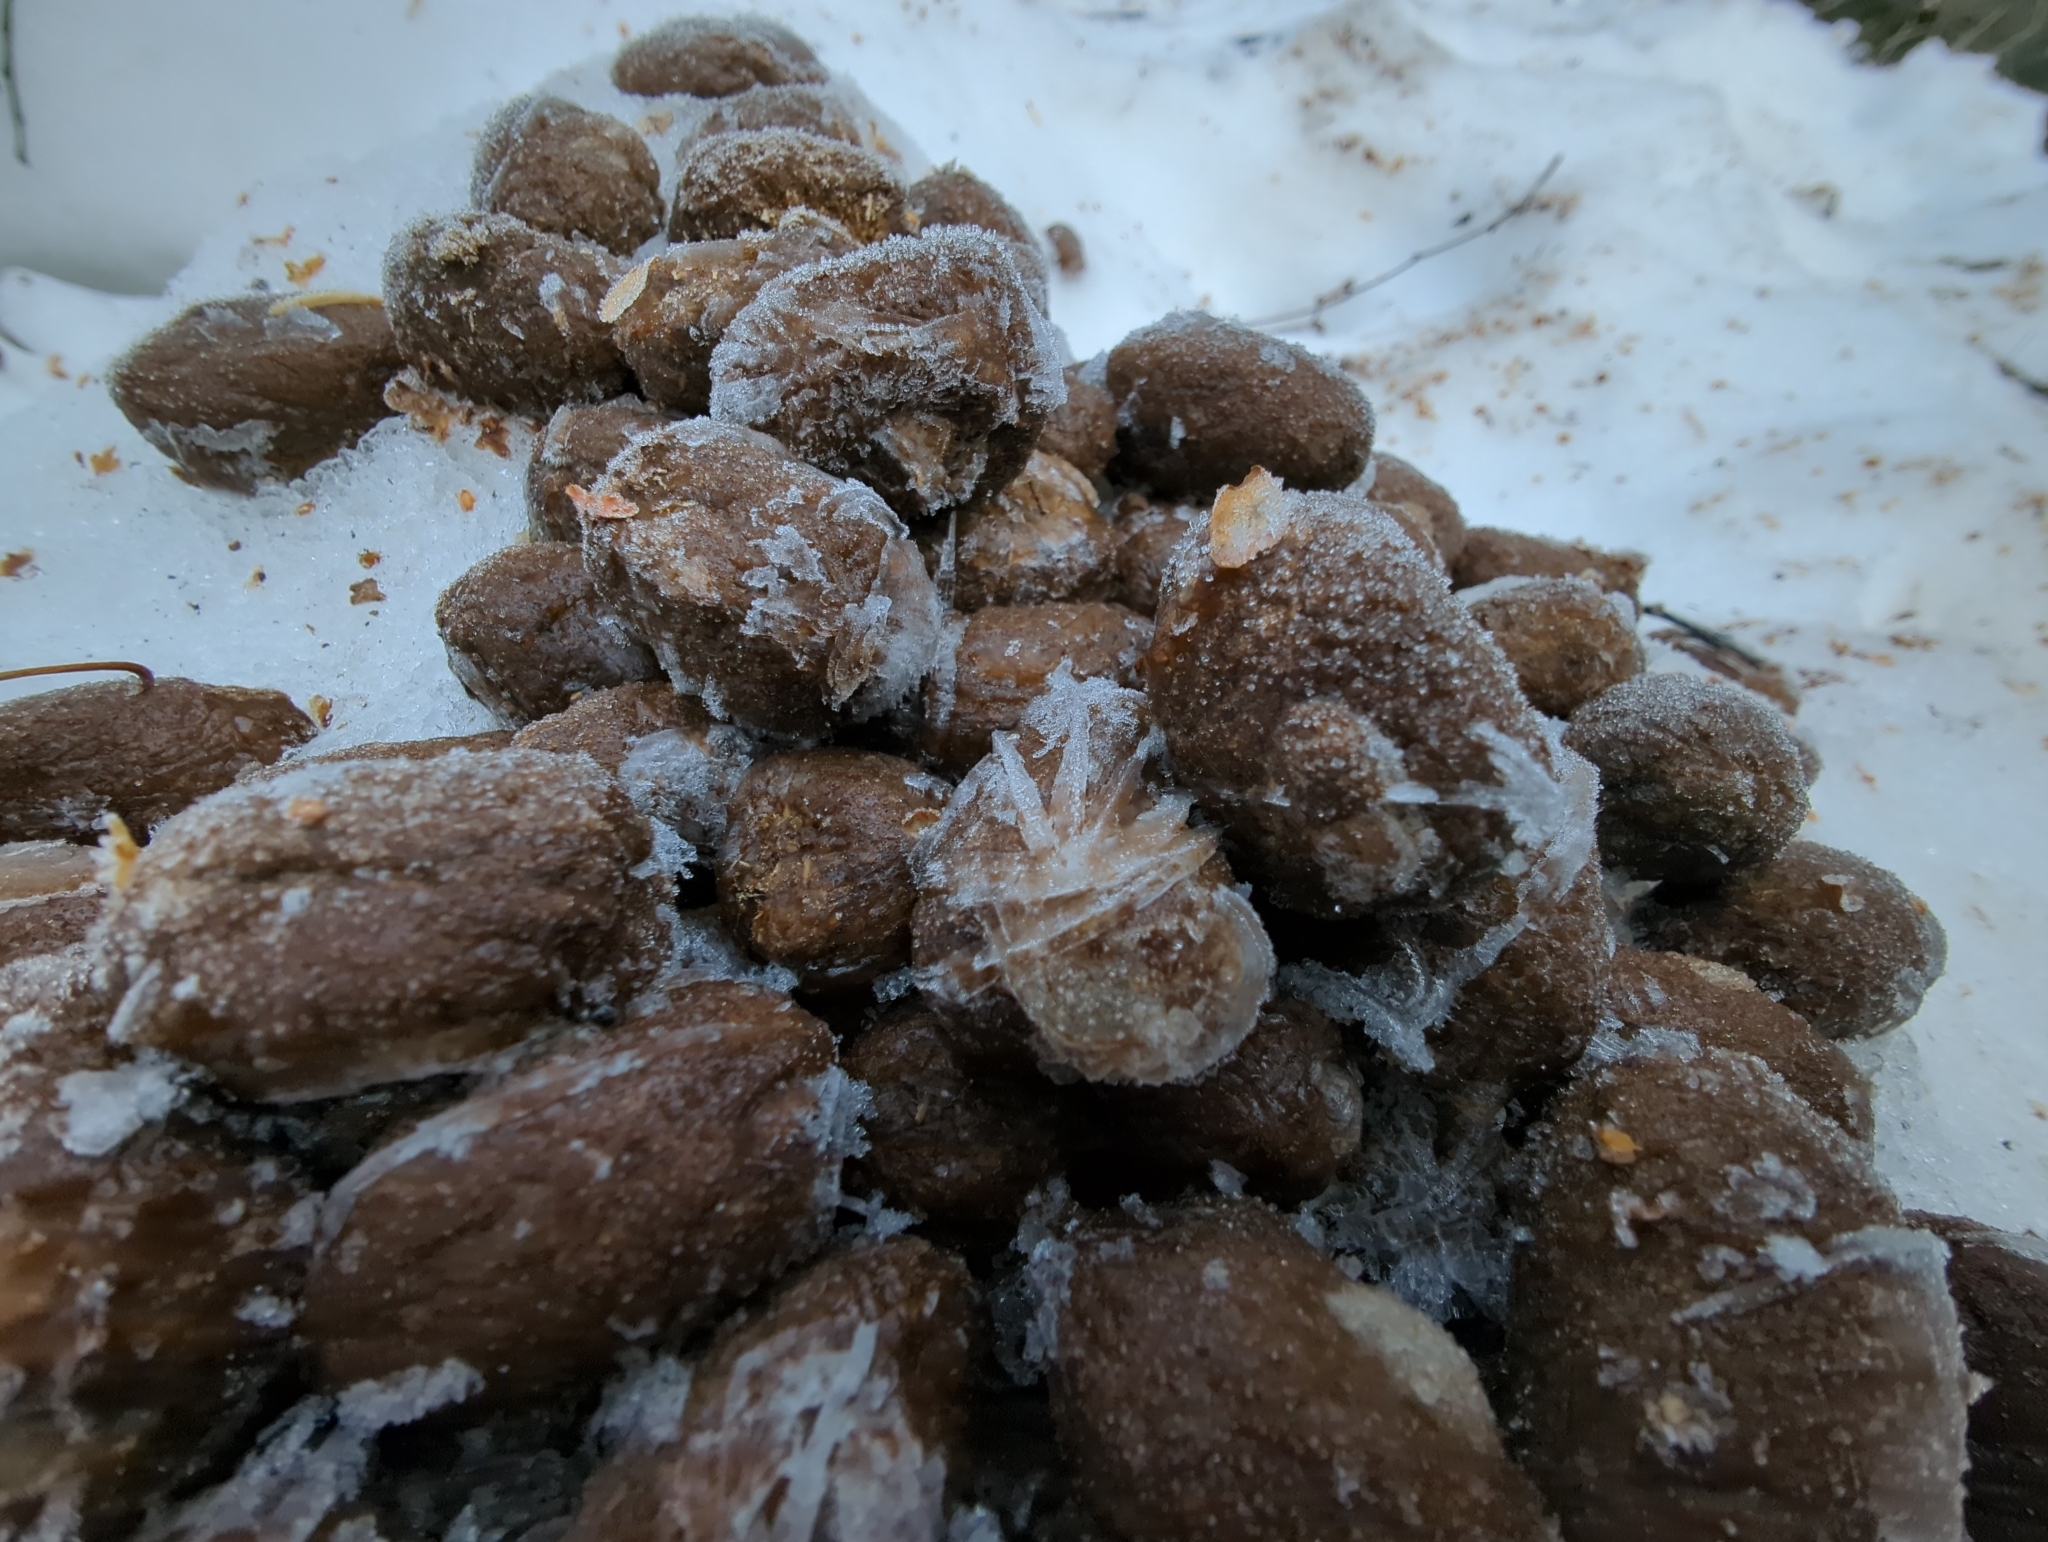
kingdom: Animalia
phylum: Chordata
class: Mammalia
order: Artiodactyla
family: Cervidae
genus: Alces
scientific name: Alces alces
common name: Moose
